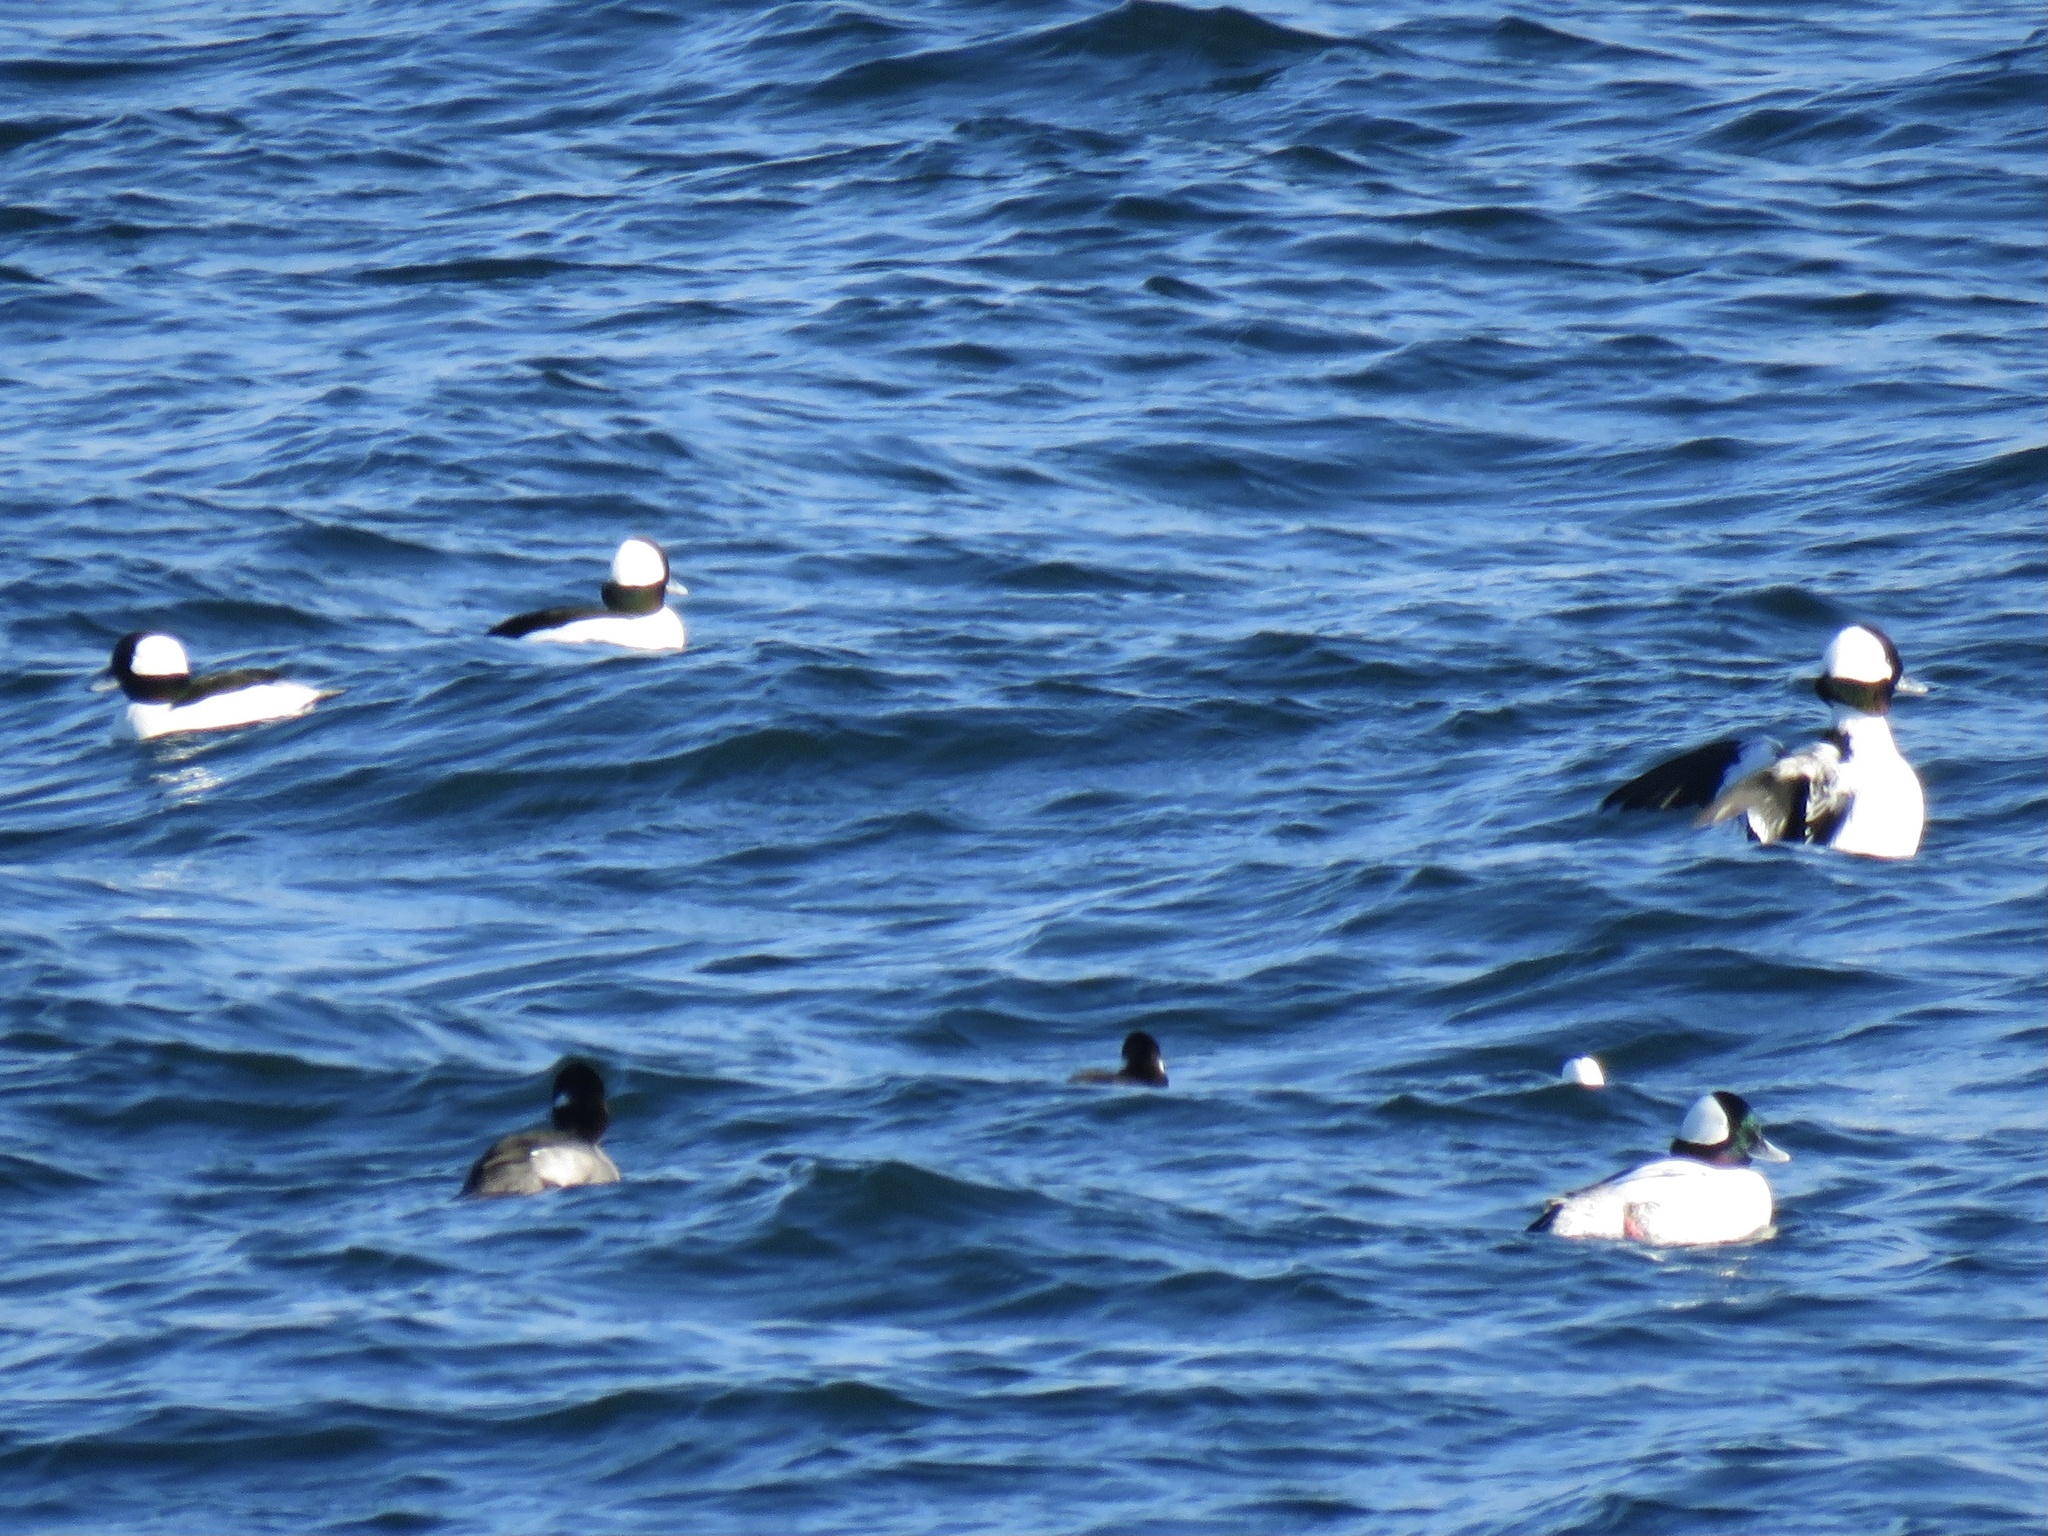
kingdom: Animalia
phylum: Chordata
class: Aves
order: Anseriformes
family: Anatidae
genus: Bucephala
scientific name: Bucephala albeola
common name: Bufflehead
